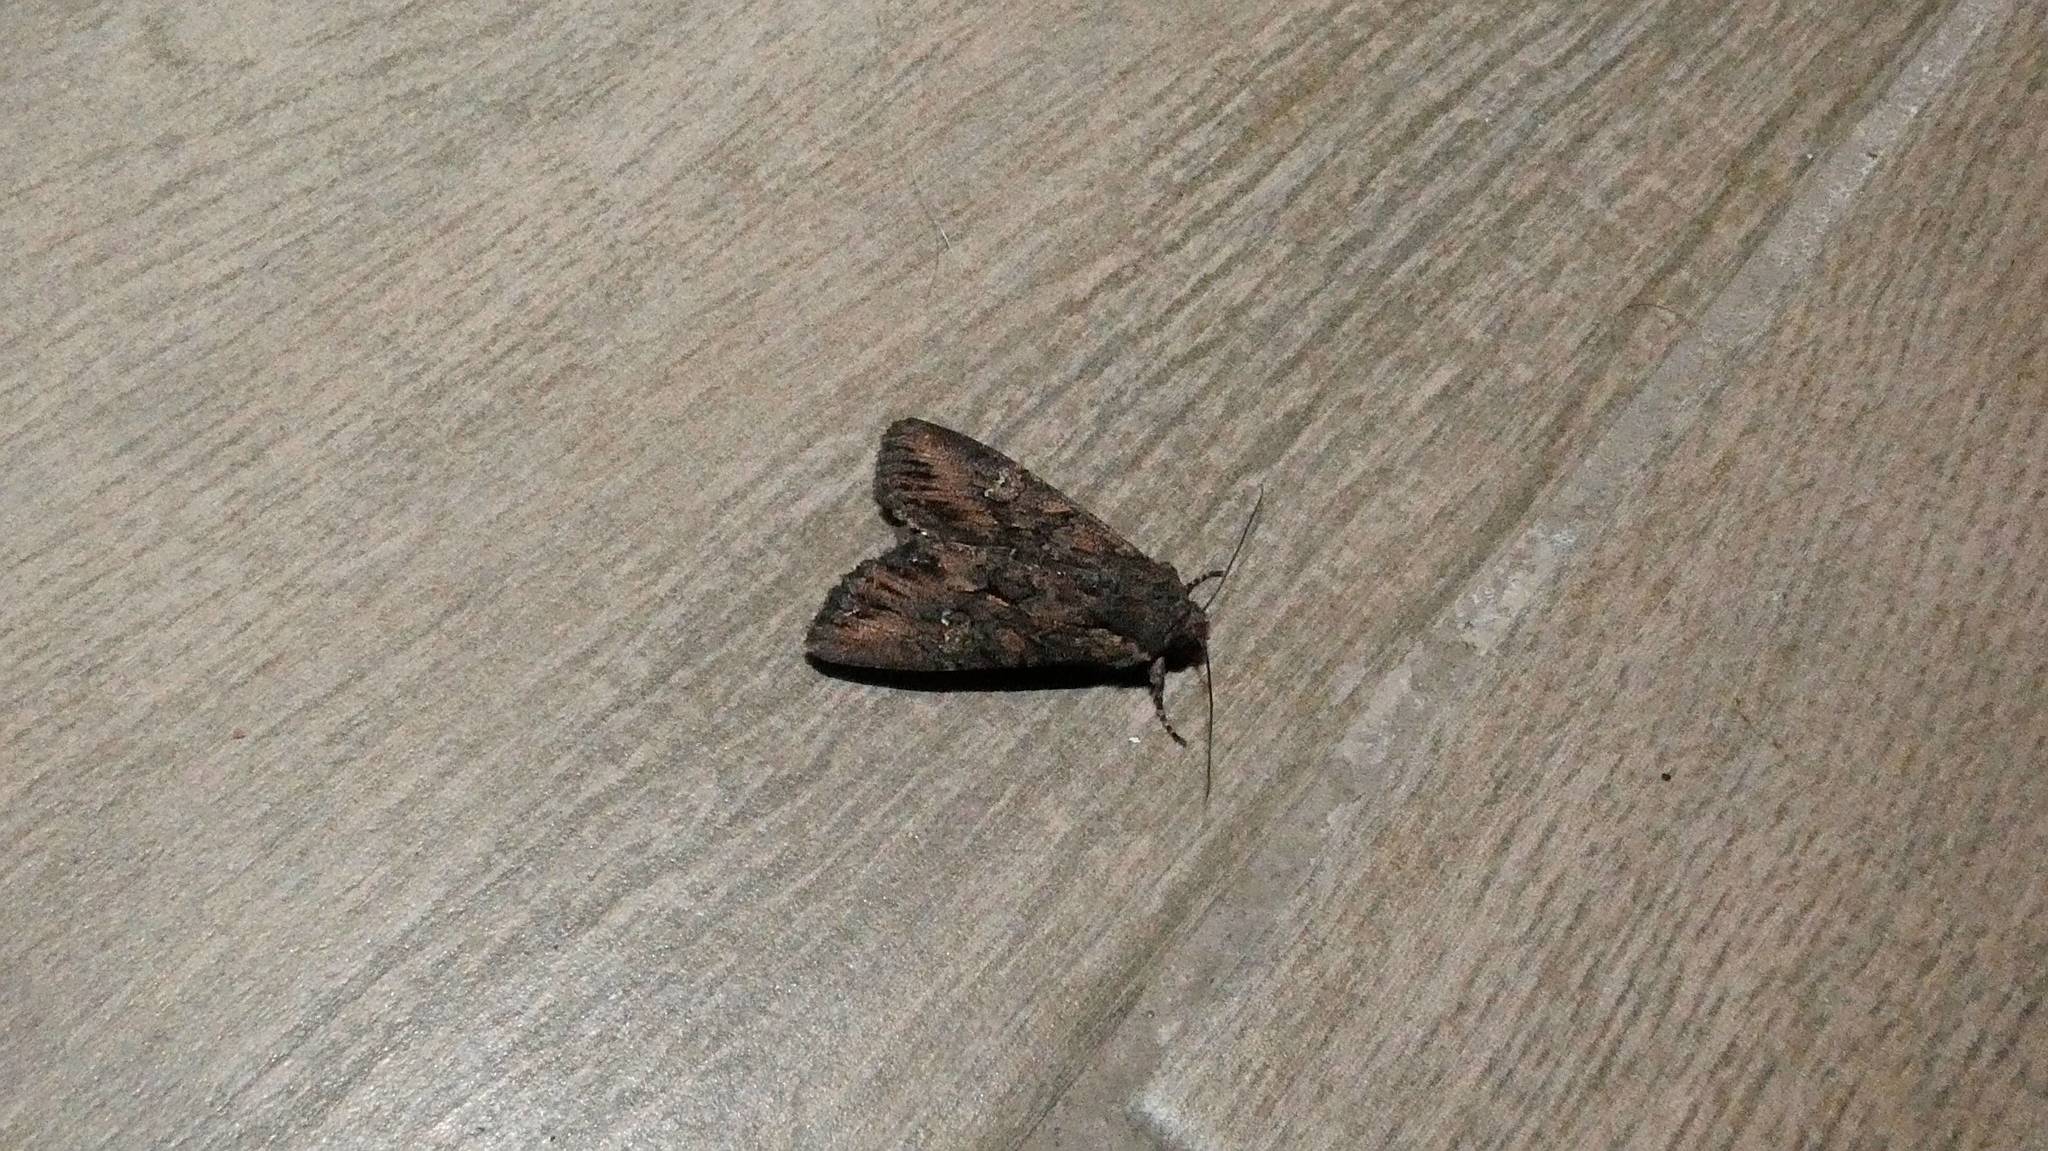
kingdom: Animalia
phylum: Arthropoda
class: Insecta
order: Lepidoptera
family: Noctuidae
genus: Mniotype
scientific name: Mniotype solieri
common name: Bedrule brocade
